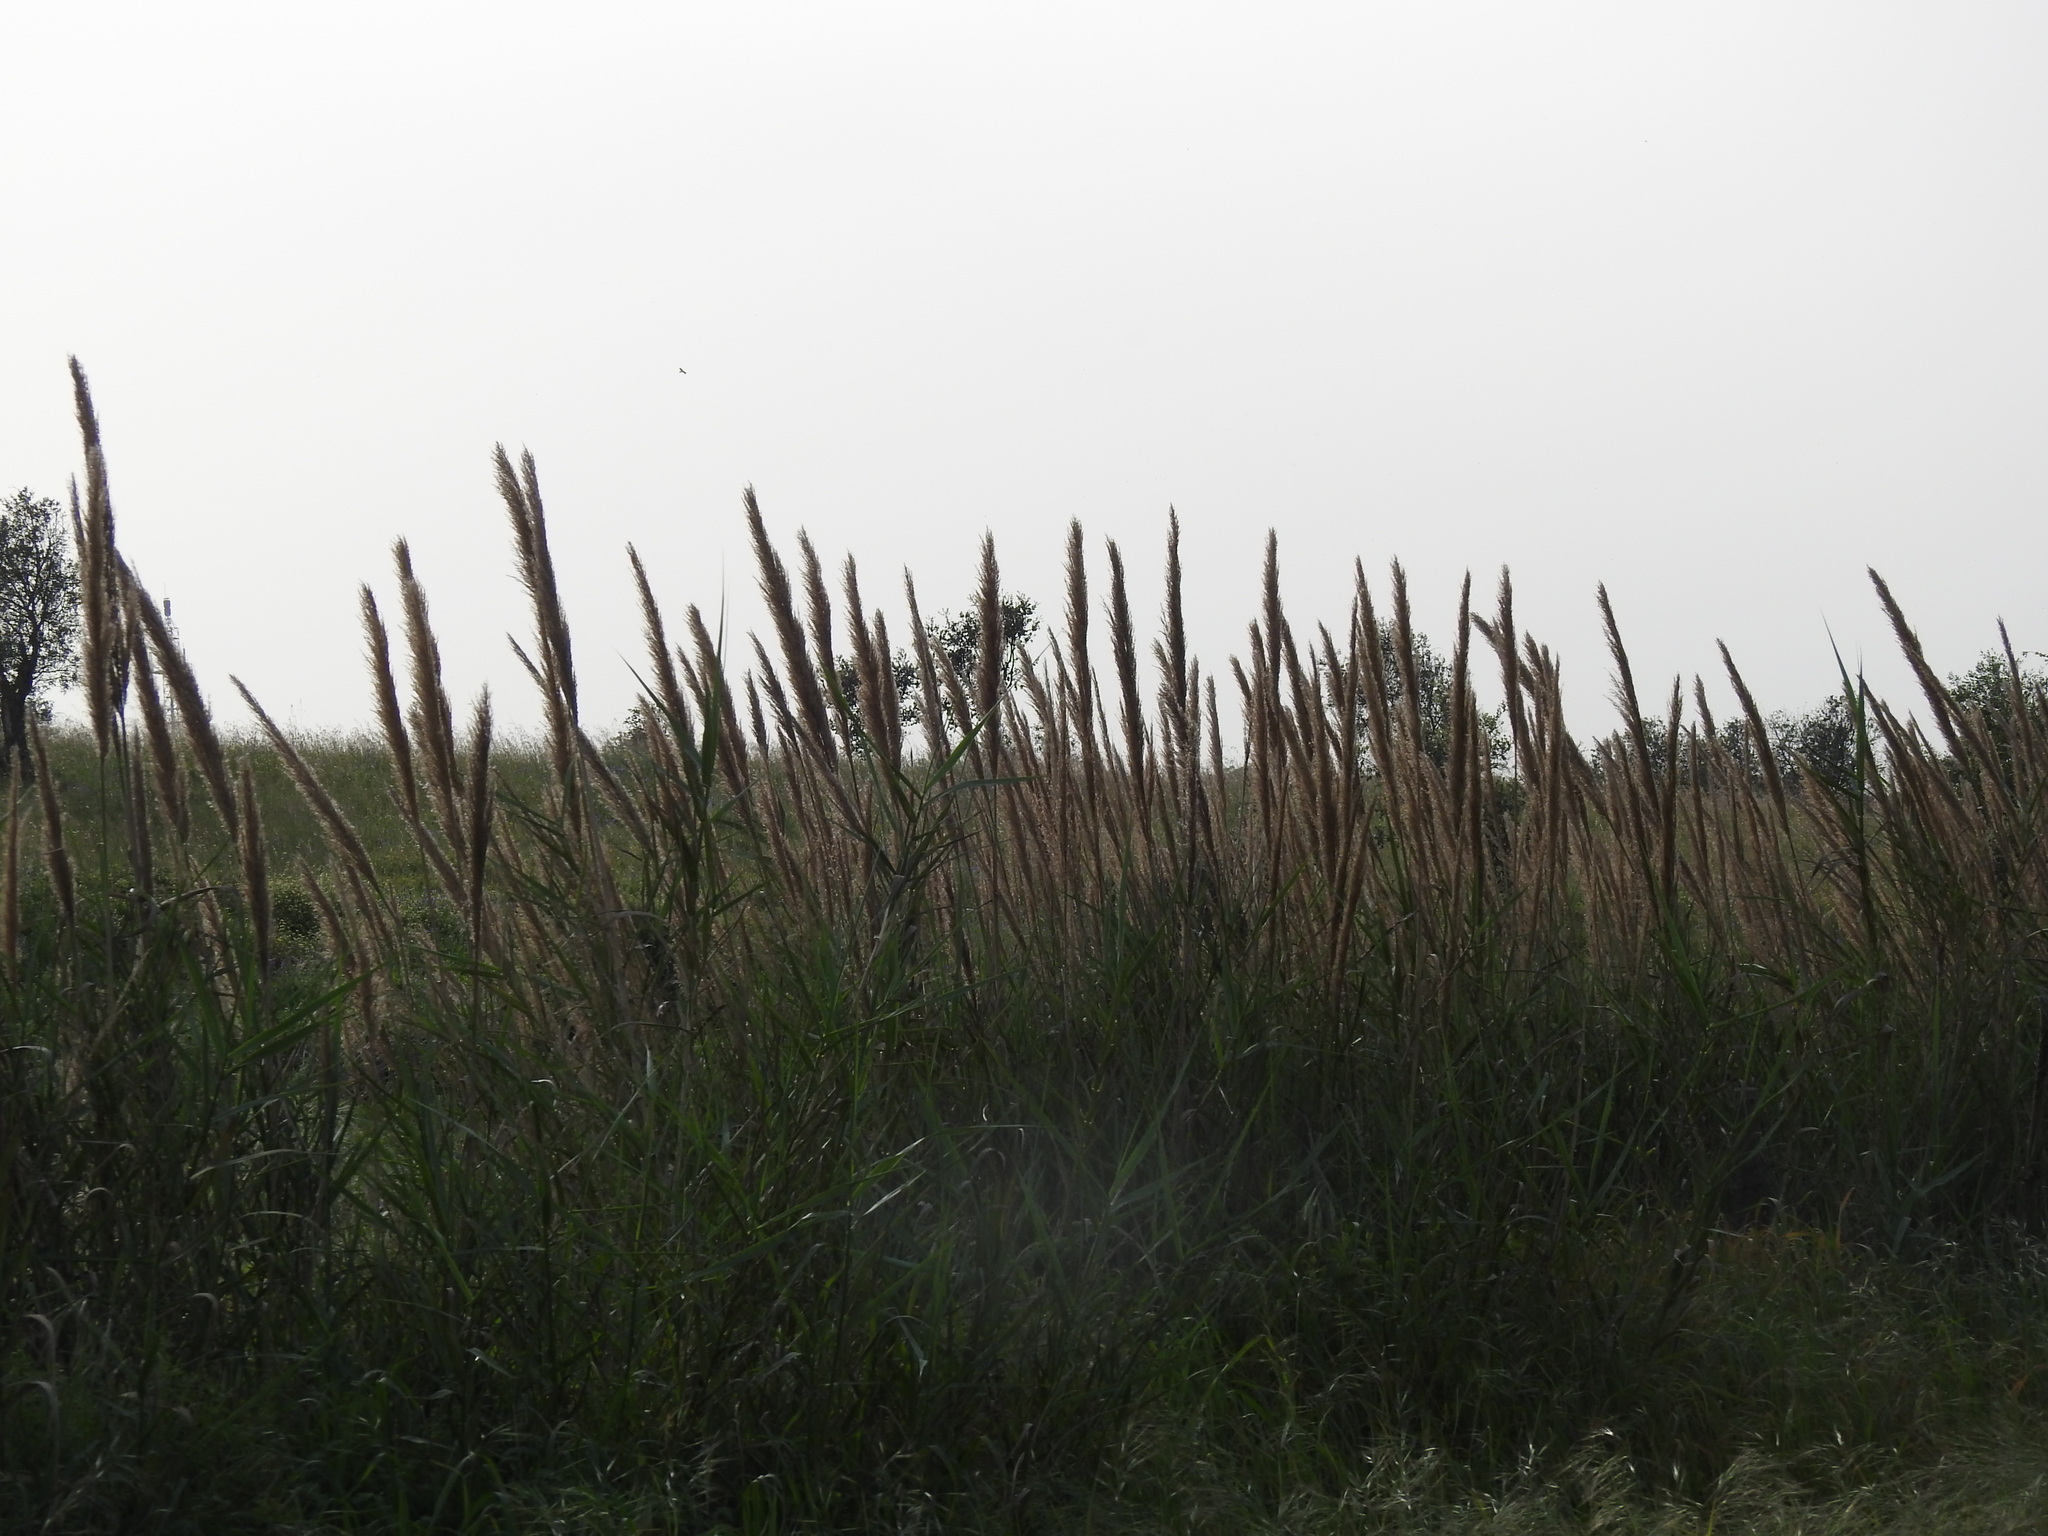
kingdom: Plantae
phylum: Tracheophyta
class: Liliopsida
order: Poales
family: Poaceae
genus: Arundo
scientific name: Arundo micrantha
